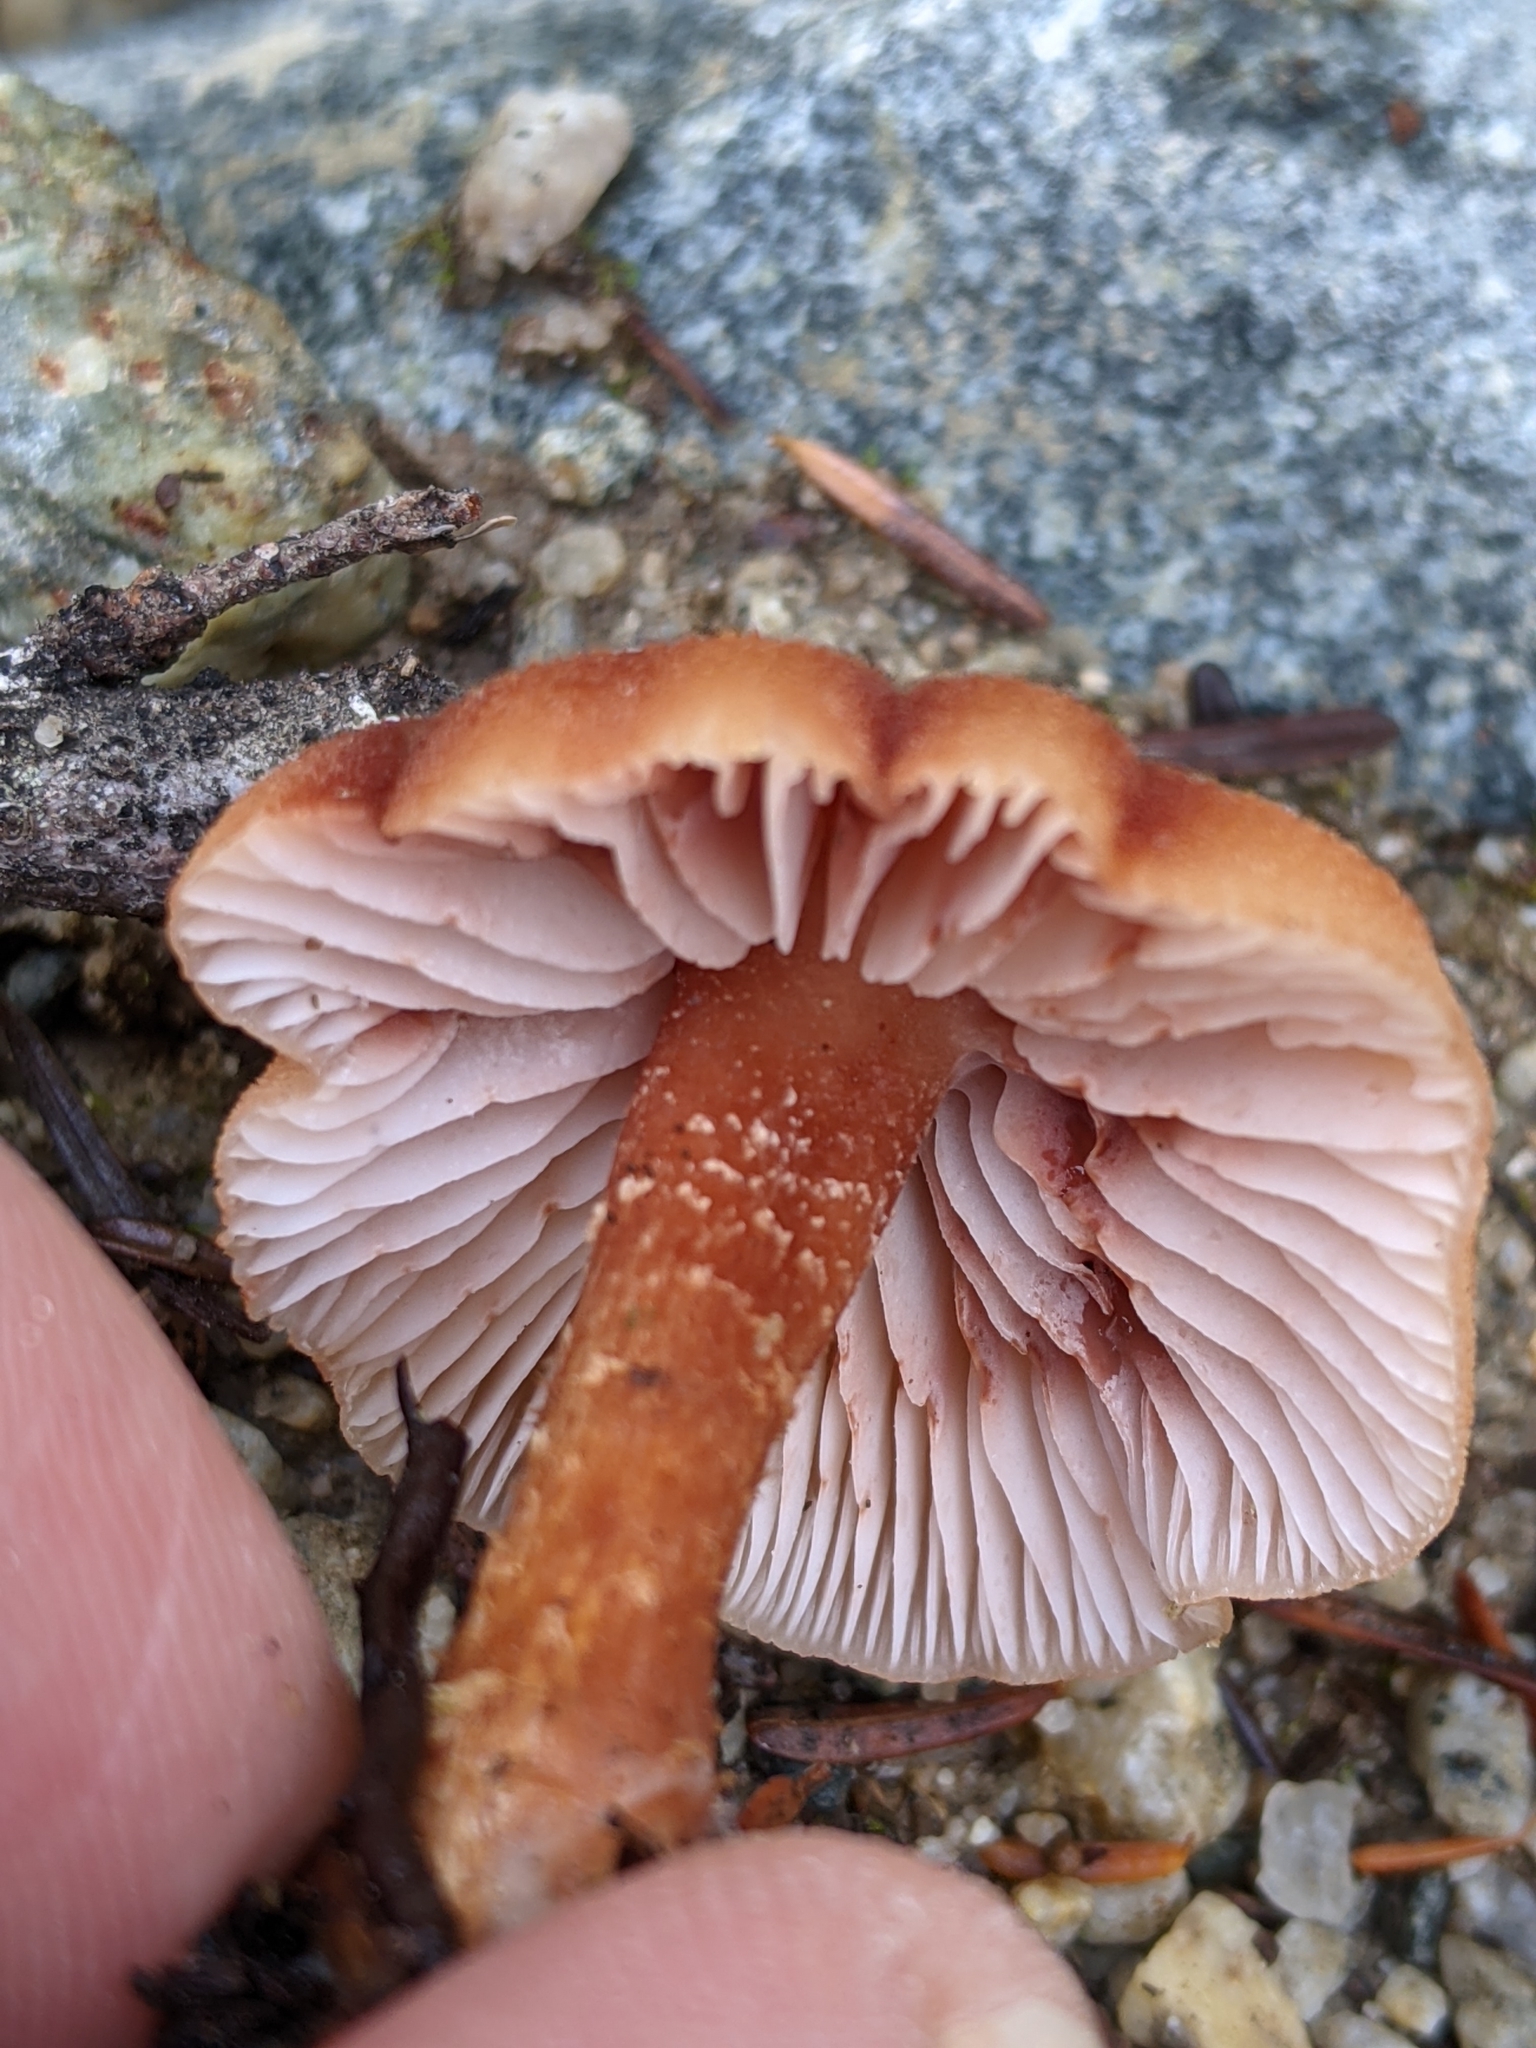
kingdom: Fungi
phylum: Basidiomycota
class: Agaricomycetes
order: Agaricales
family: Hydnangiaceae
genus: Laccaria
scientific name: Laccaria bicolor
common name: Bicoloured deceiver
